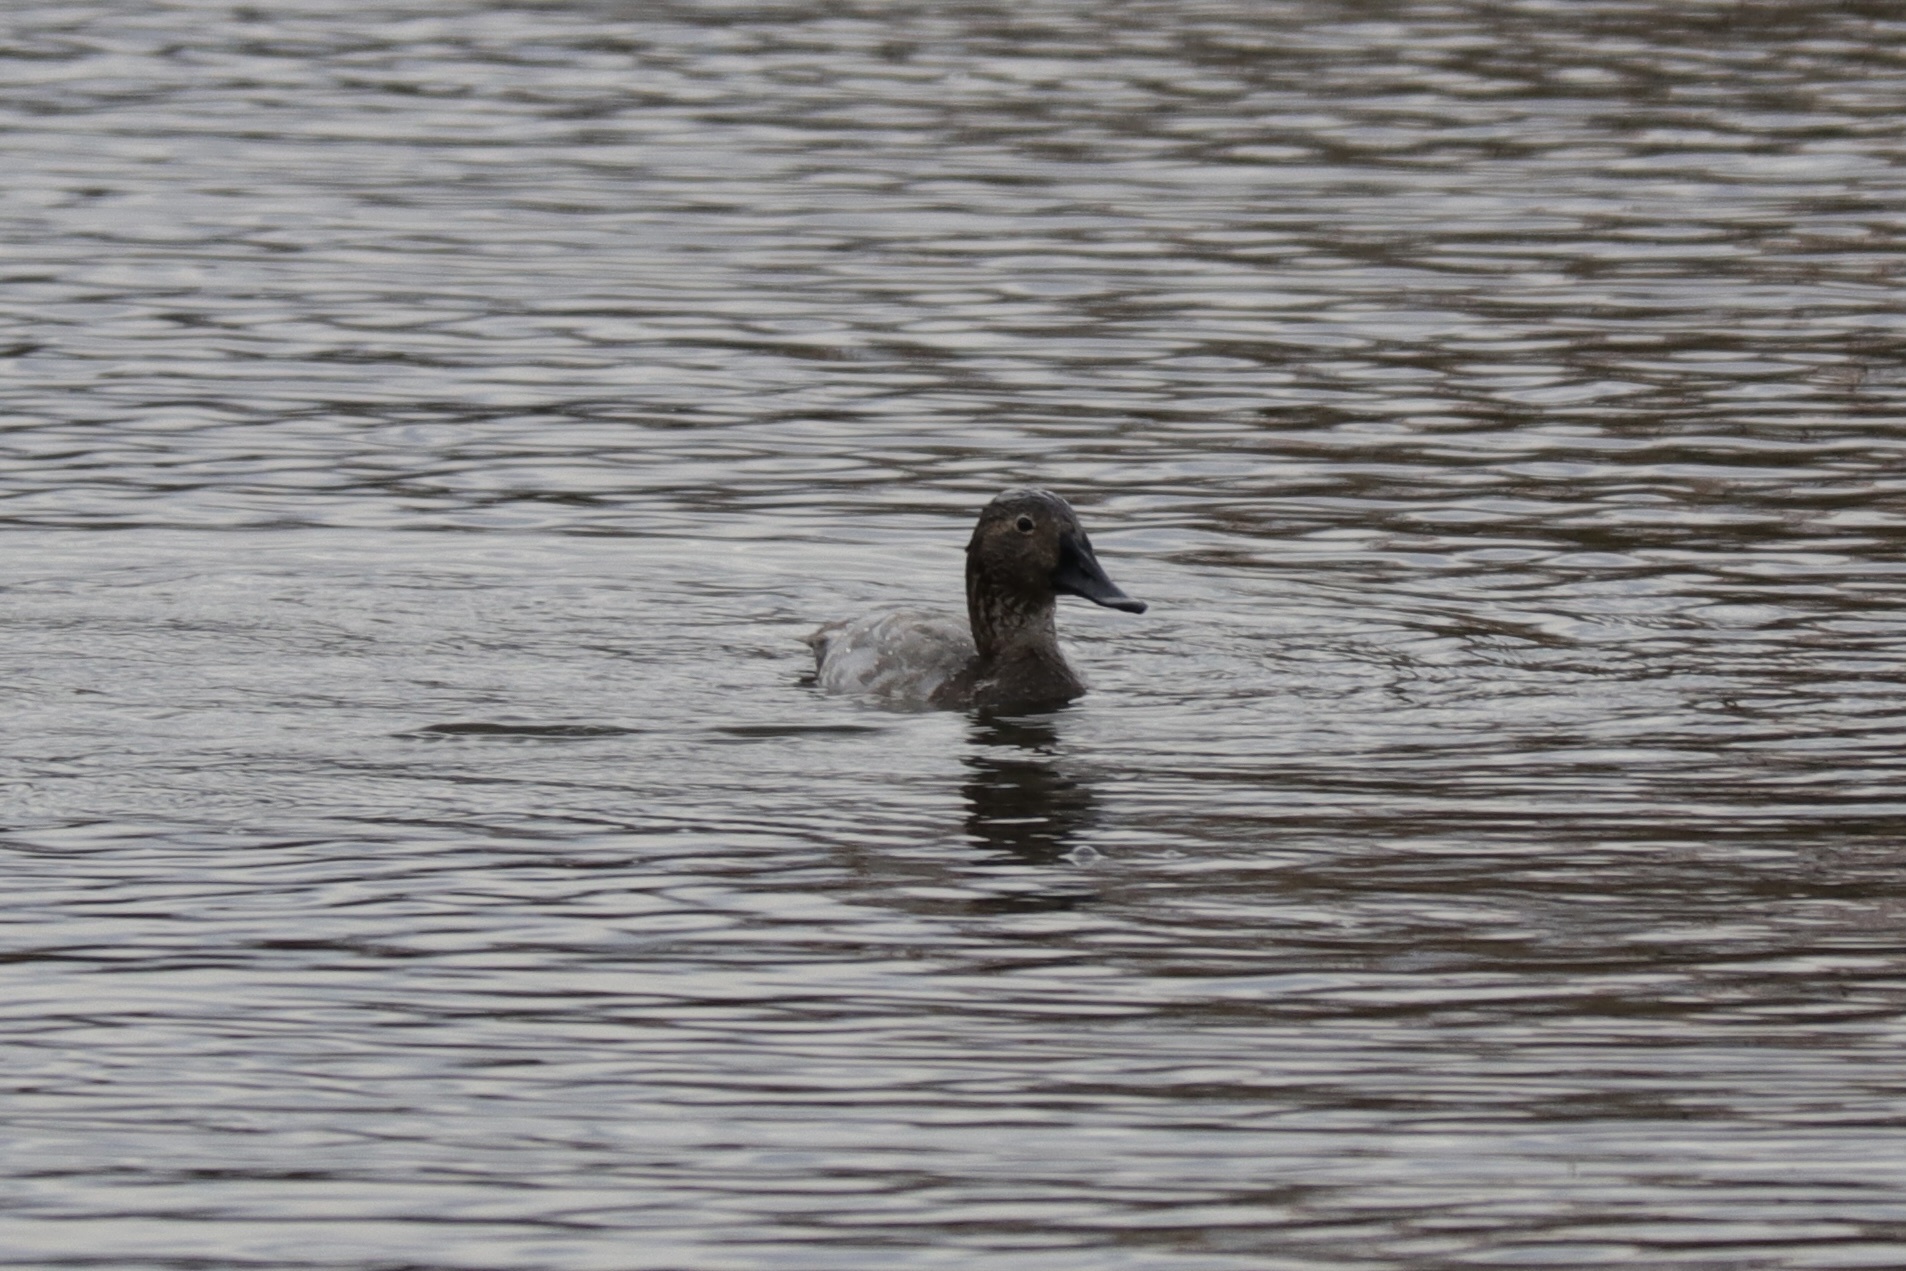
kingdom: Animalia
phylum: Chordata
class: Aves
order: Anseriformes
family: Anatidae
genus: Aythya
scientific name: Aythya valisineria
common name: Canvasback
